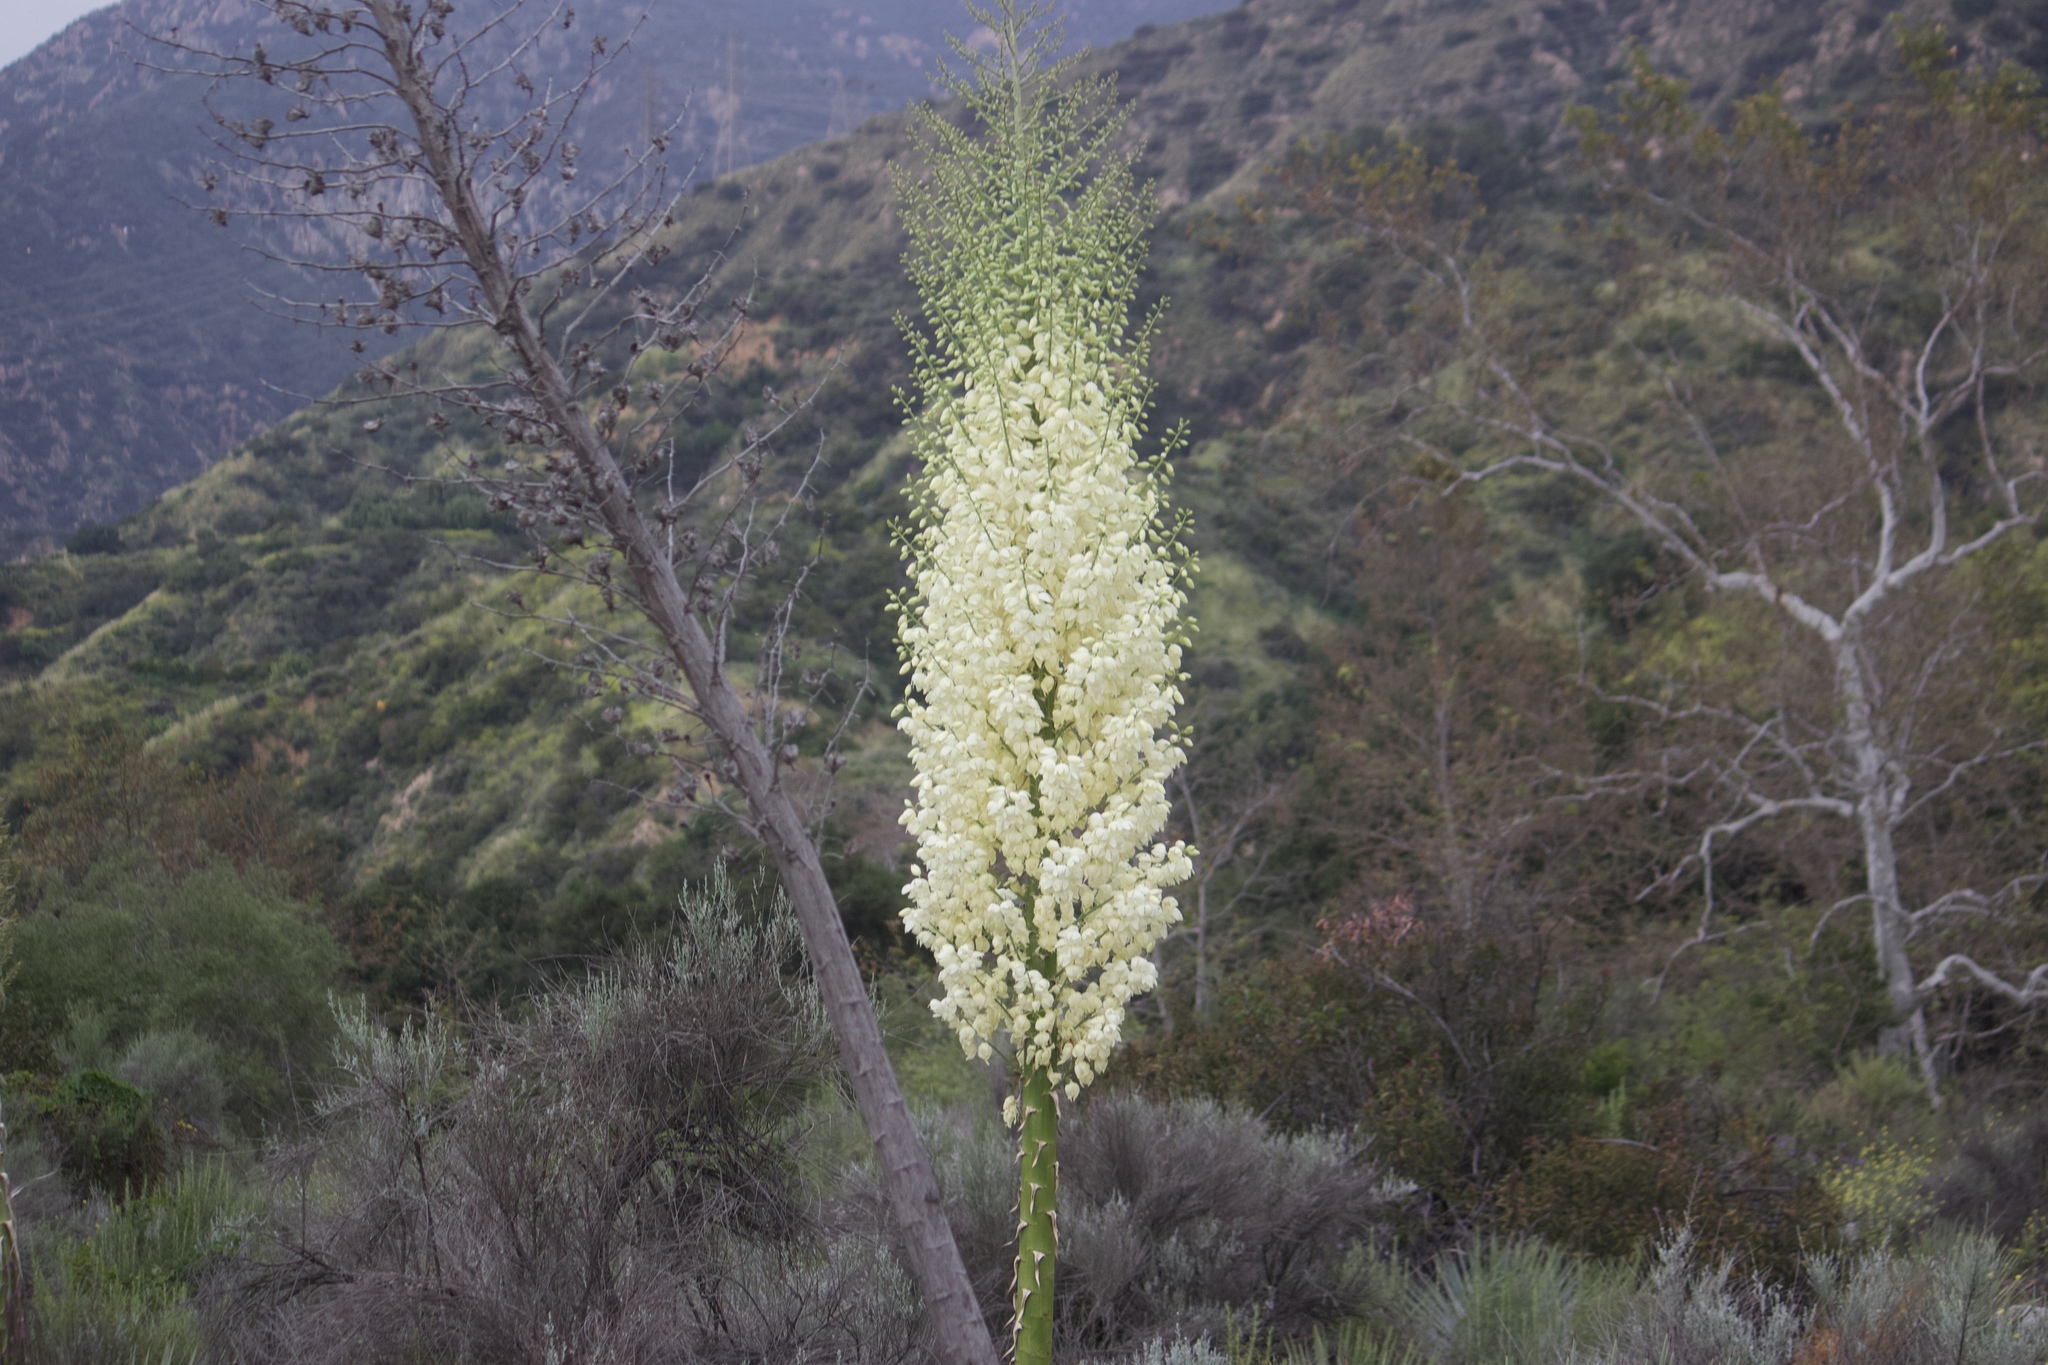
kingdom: Plantae
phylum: Tracheophyta
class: Liliopsida
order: Asparagales
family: Asparagaceae
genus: Hesperoyucca
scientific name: Hesperoyucca whipplei
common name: Our lord's-candle
